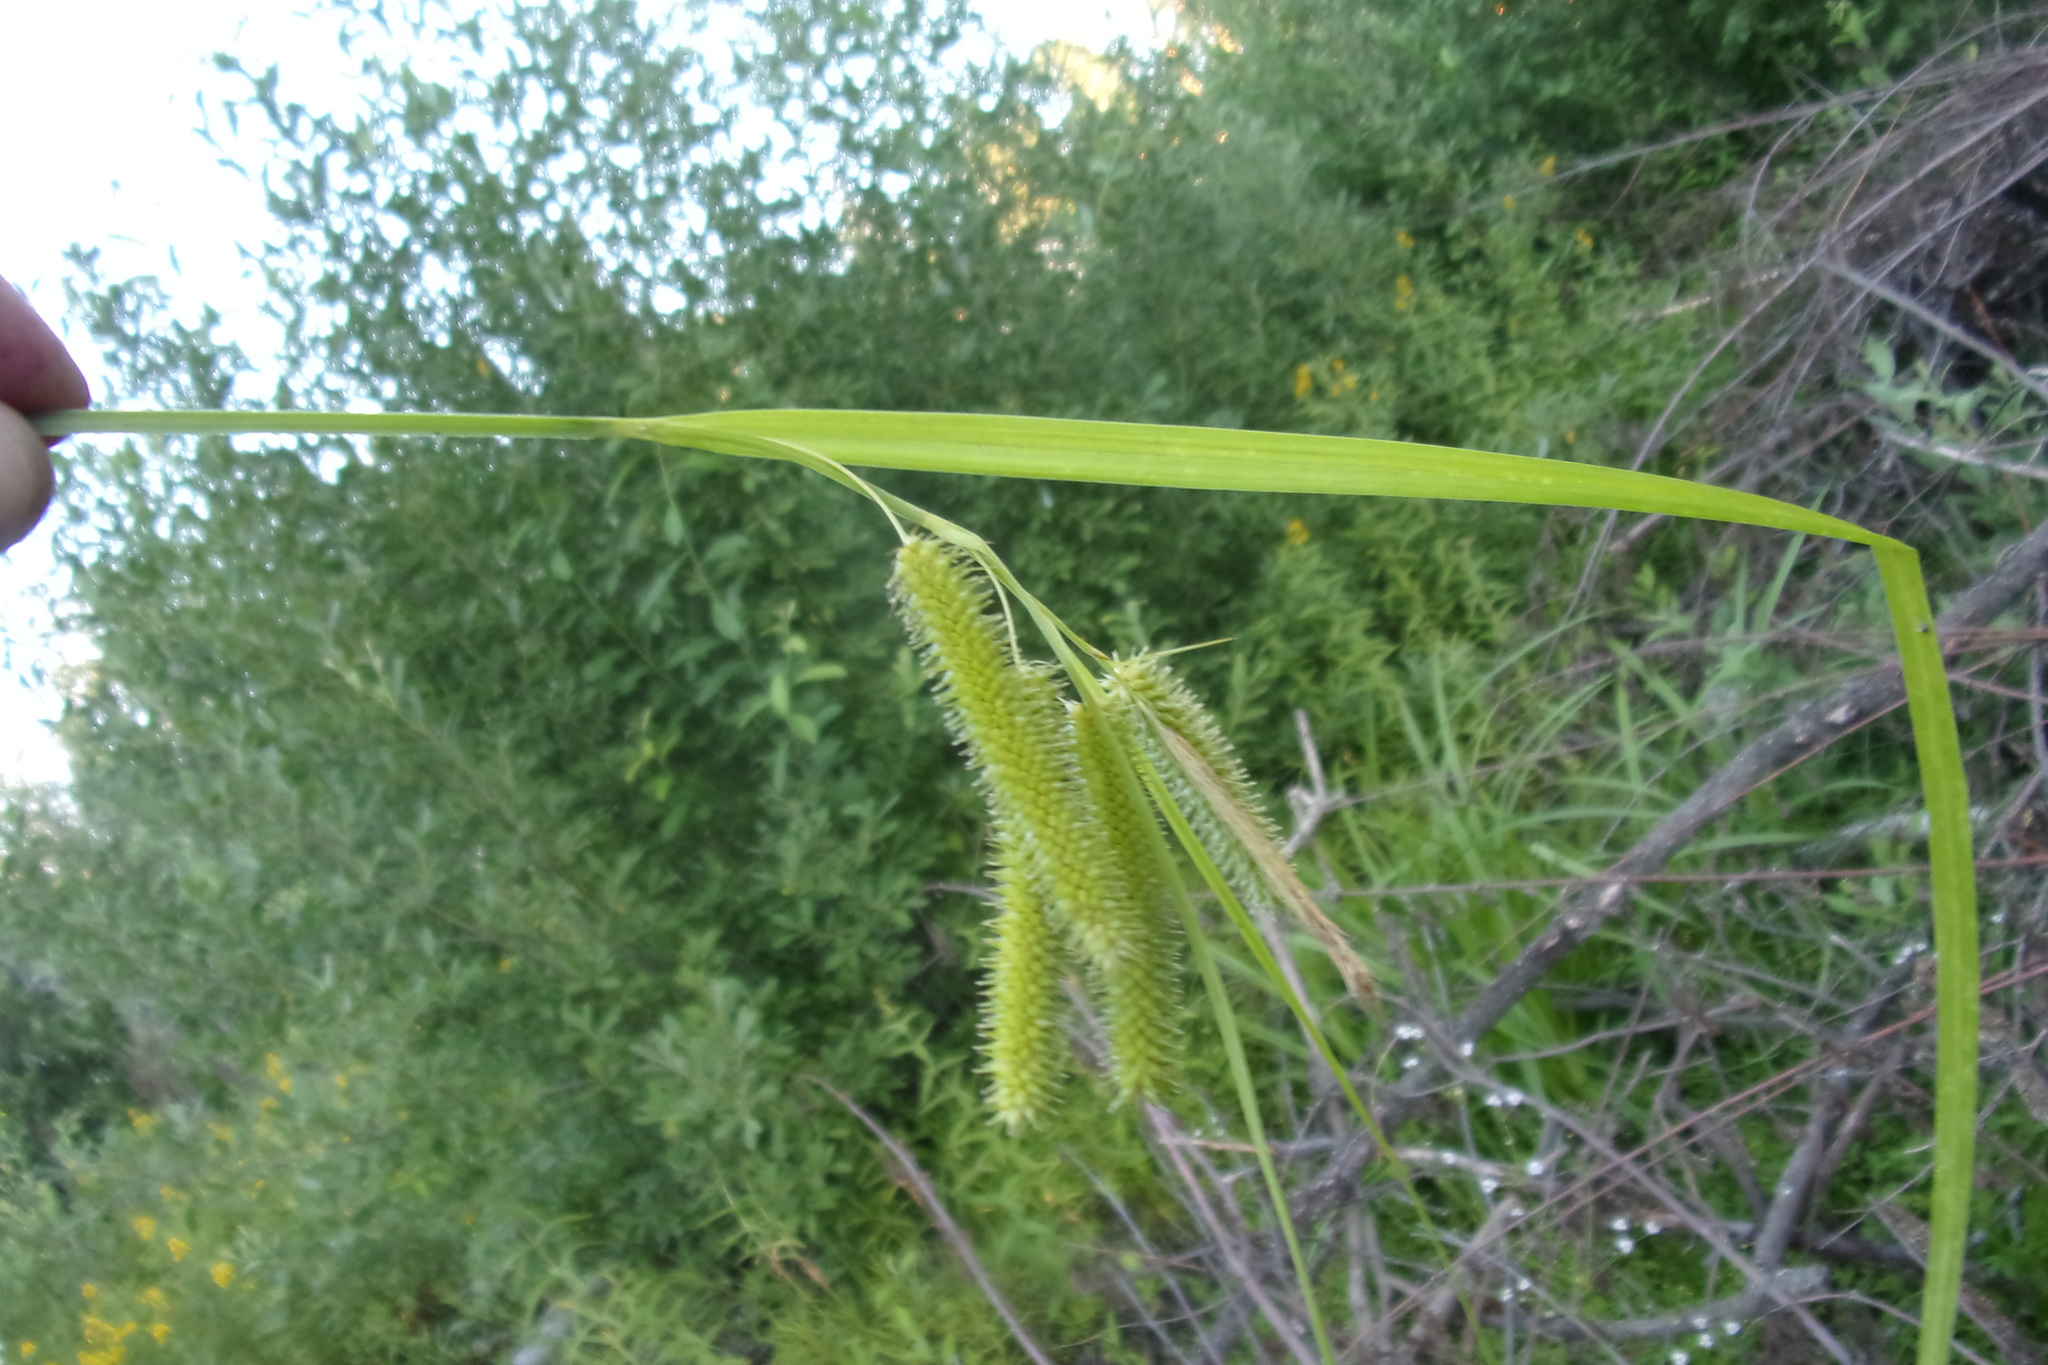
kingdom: Plantae
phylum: Tracheophyta
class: Liliopsida
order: Poales
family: Cyperaceae
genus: Carex
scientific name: Carex pseudocyperus
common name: Cyperus sedge
